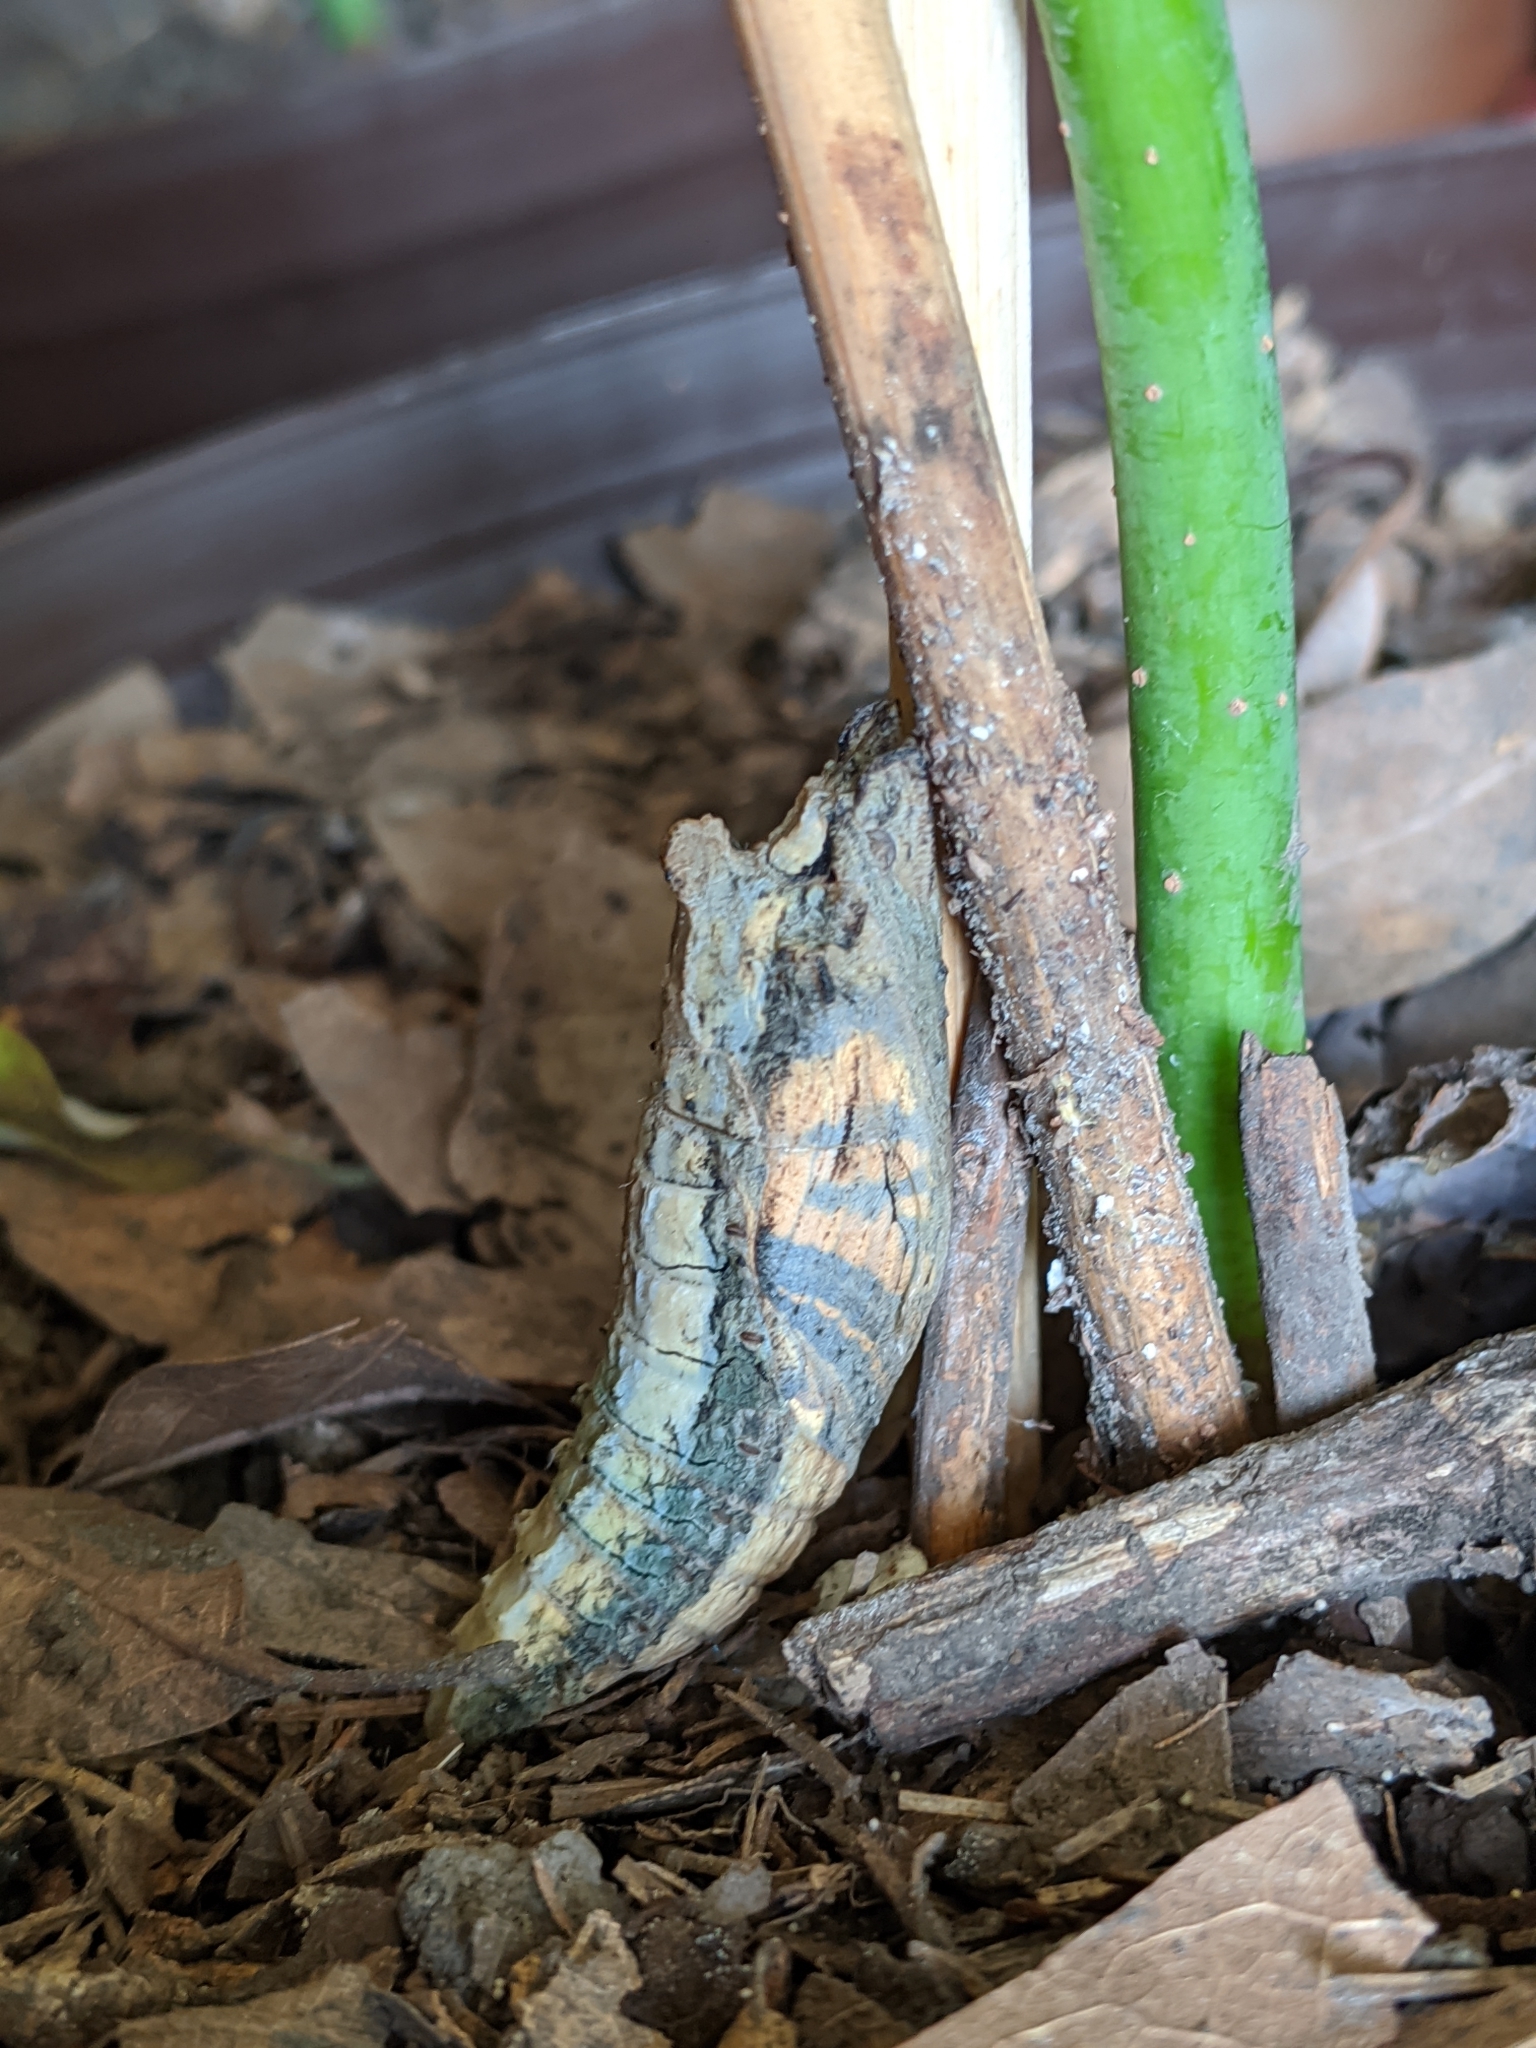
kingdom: Animalia
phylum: Arthropoda
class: Insecta
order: Lepidoptera
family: Papilionidae
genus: Papilio
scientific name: Papilio multicaudata
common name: Two-tailed tiger swallowtail
